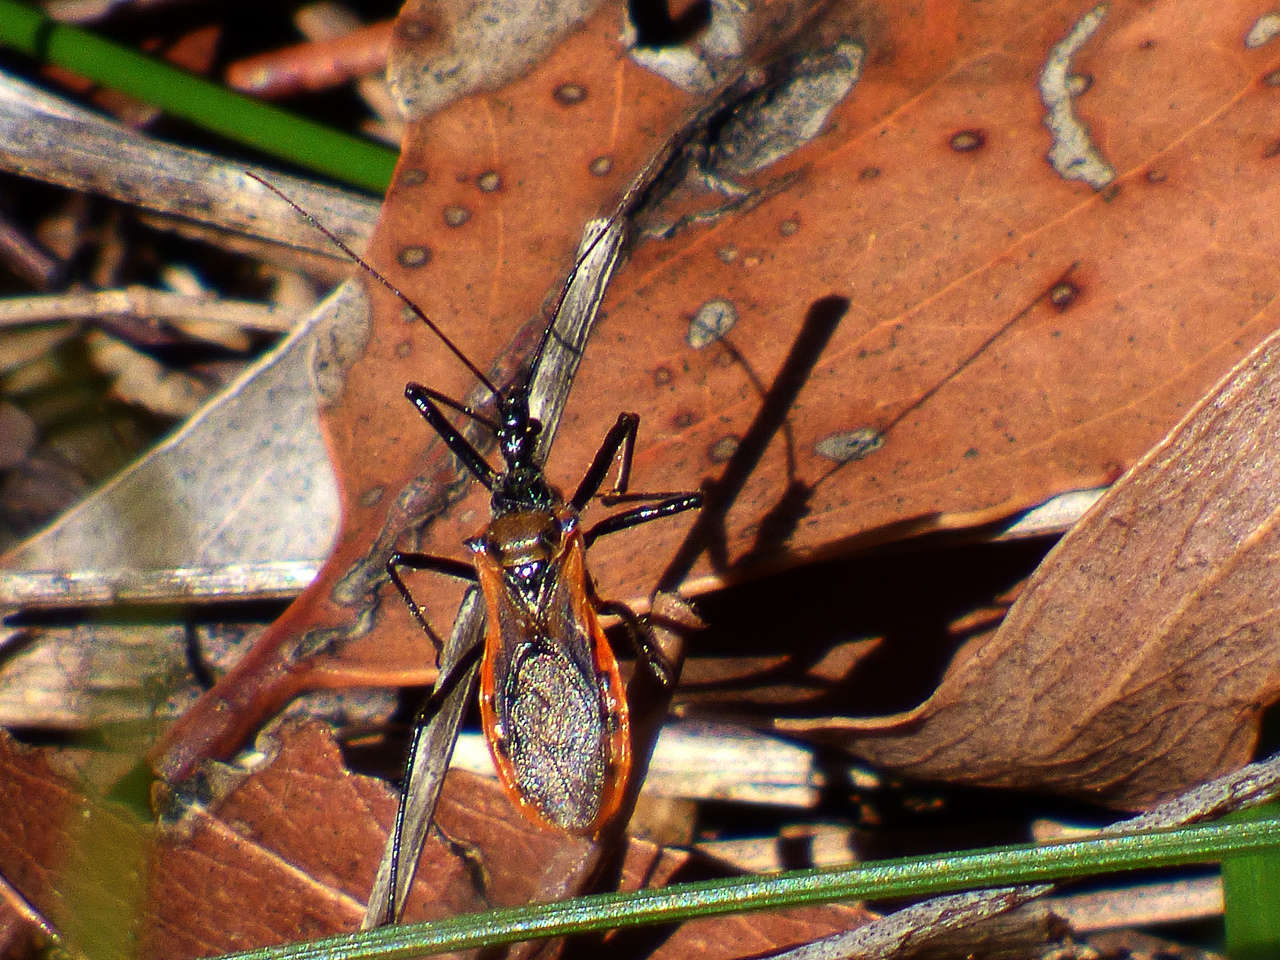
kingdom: Animalia
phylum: Arthropoda
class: Insecta
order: Hemiptera
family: Reduviidae
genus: Gminatus
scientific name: Gminatus australis
